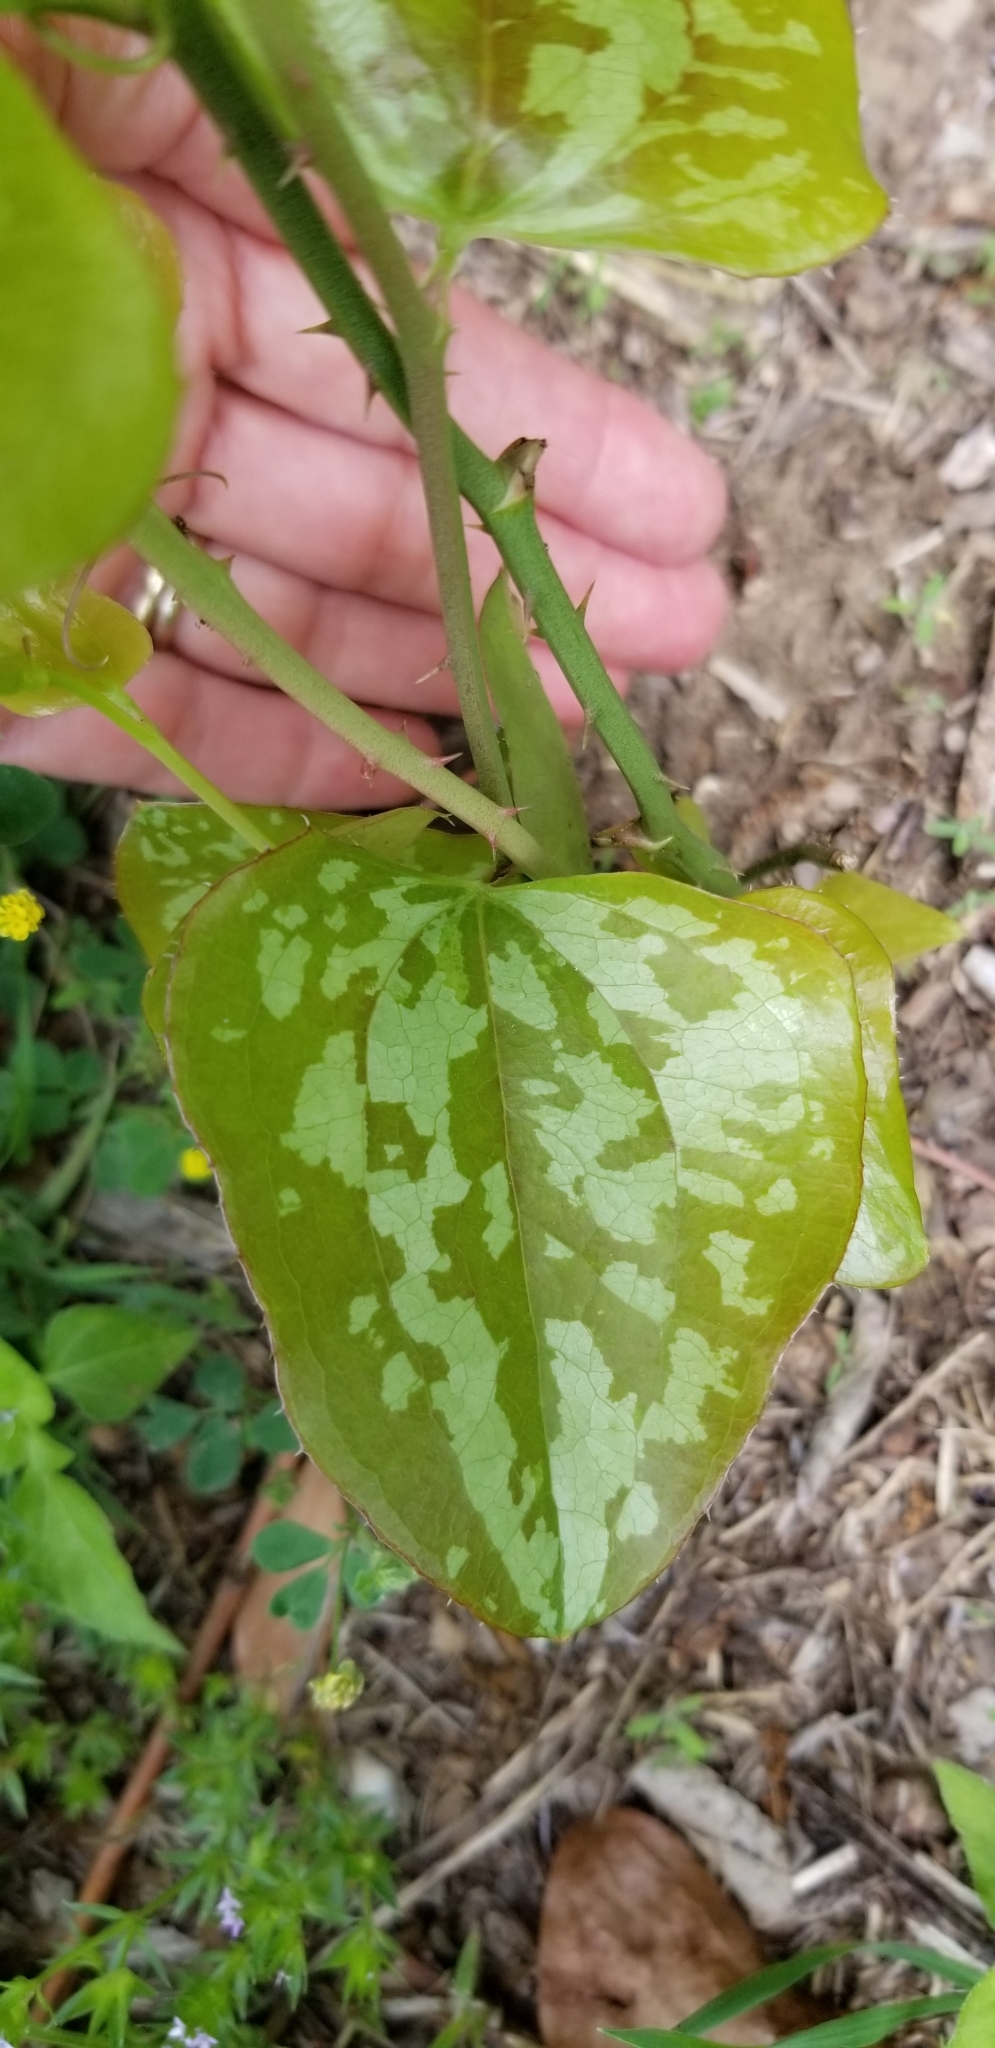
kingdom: Plantae
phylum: Tracheophyta
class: Liliopsida
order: Liliales
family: Smilacaceae
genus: Smilax
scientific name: Smilax bona-nox
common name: Catbrier
